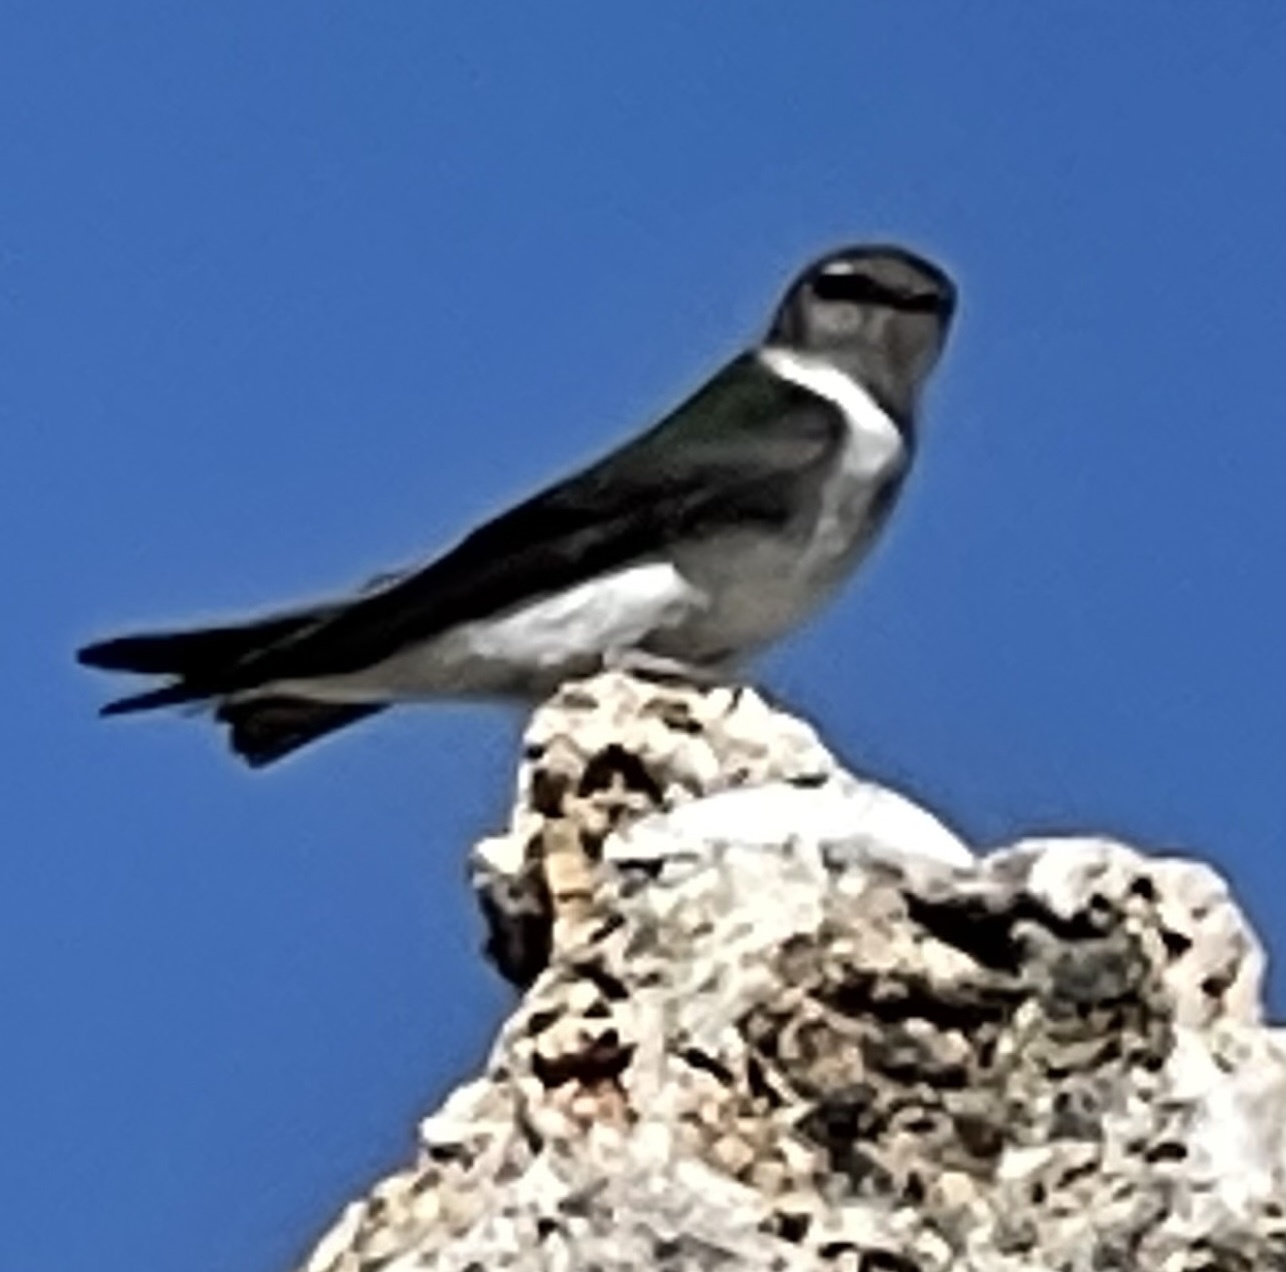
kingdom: Animalia
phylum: Chordata
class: Aves
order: Passeriformes
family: Hirundinidae
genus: Tachycineta
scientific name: Tachycineta thalassina
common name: Violet-green swallow
